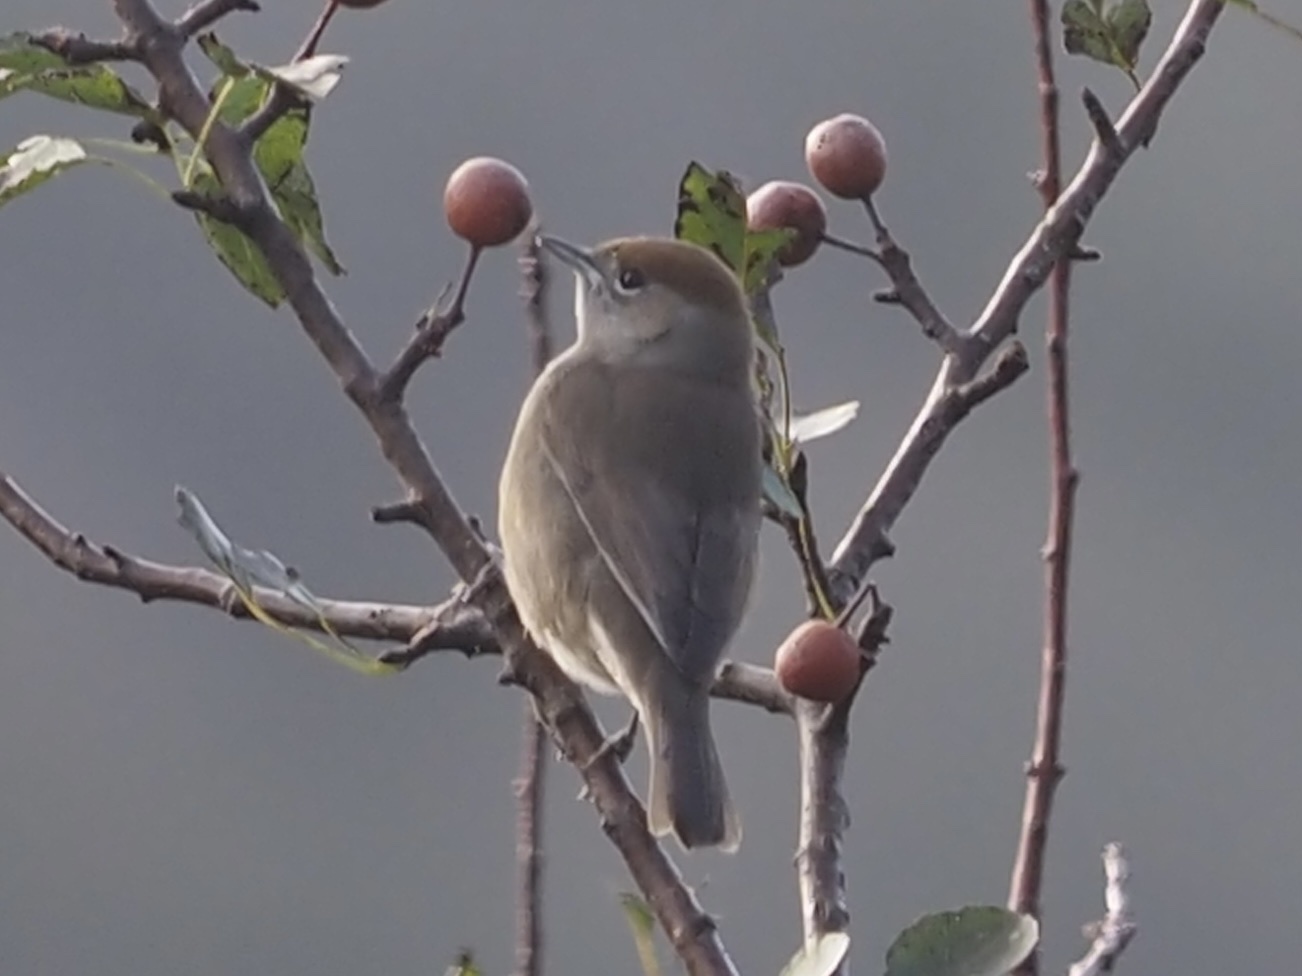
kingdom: Animalia
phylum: Chordata
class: Aves
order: Passeriformes
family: Sylviidae
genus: Sylvia
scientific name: Sylvia atricapilla
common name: Eurasian blackcap
